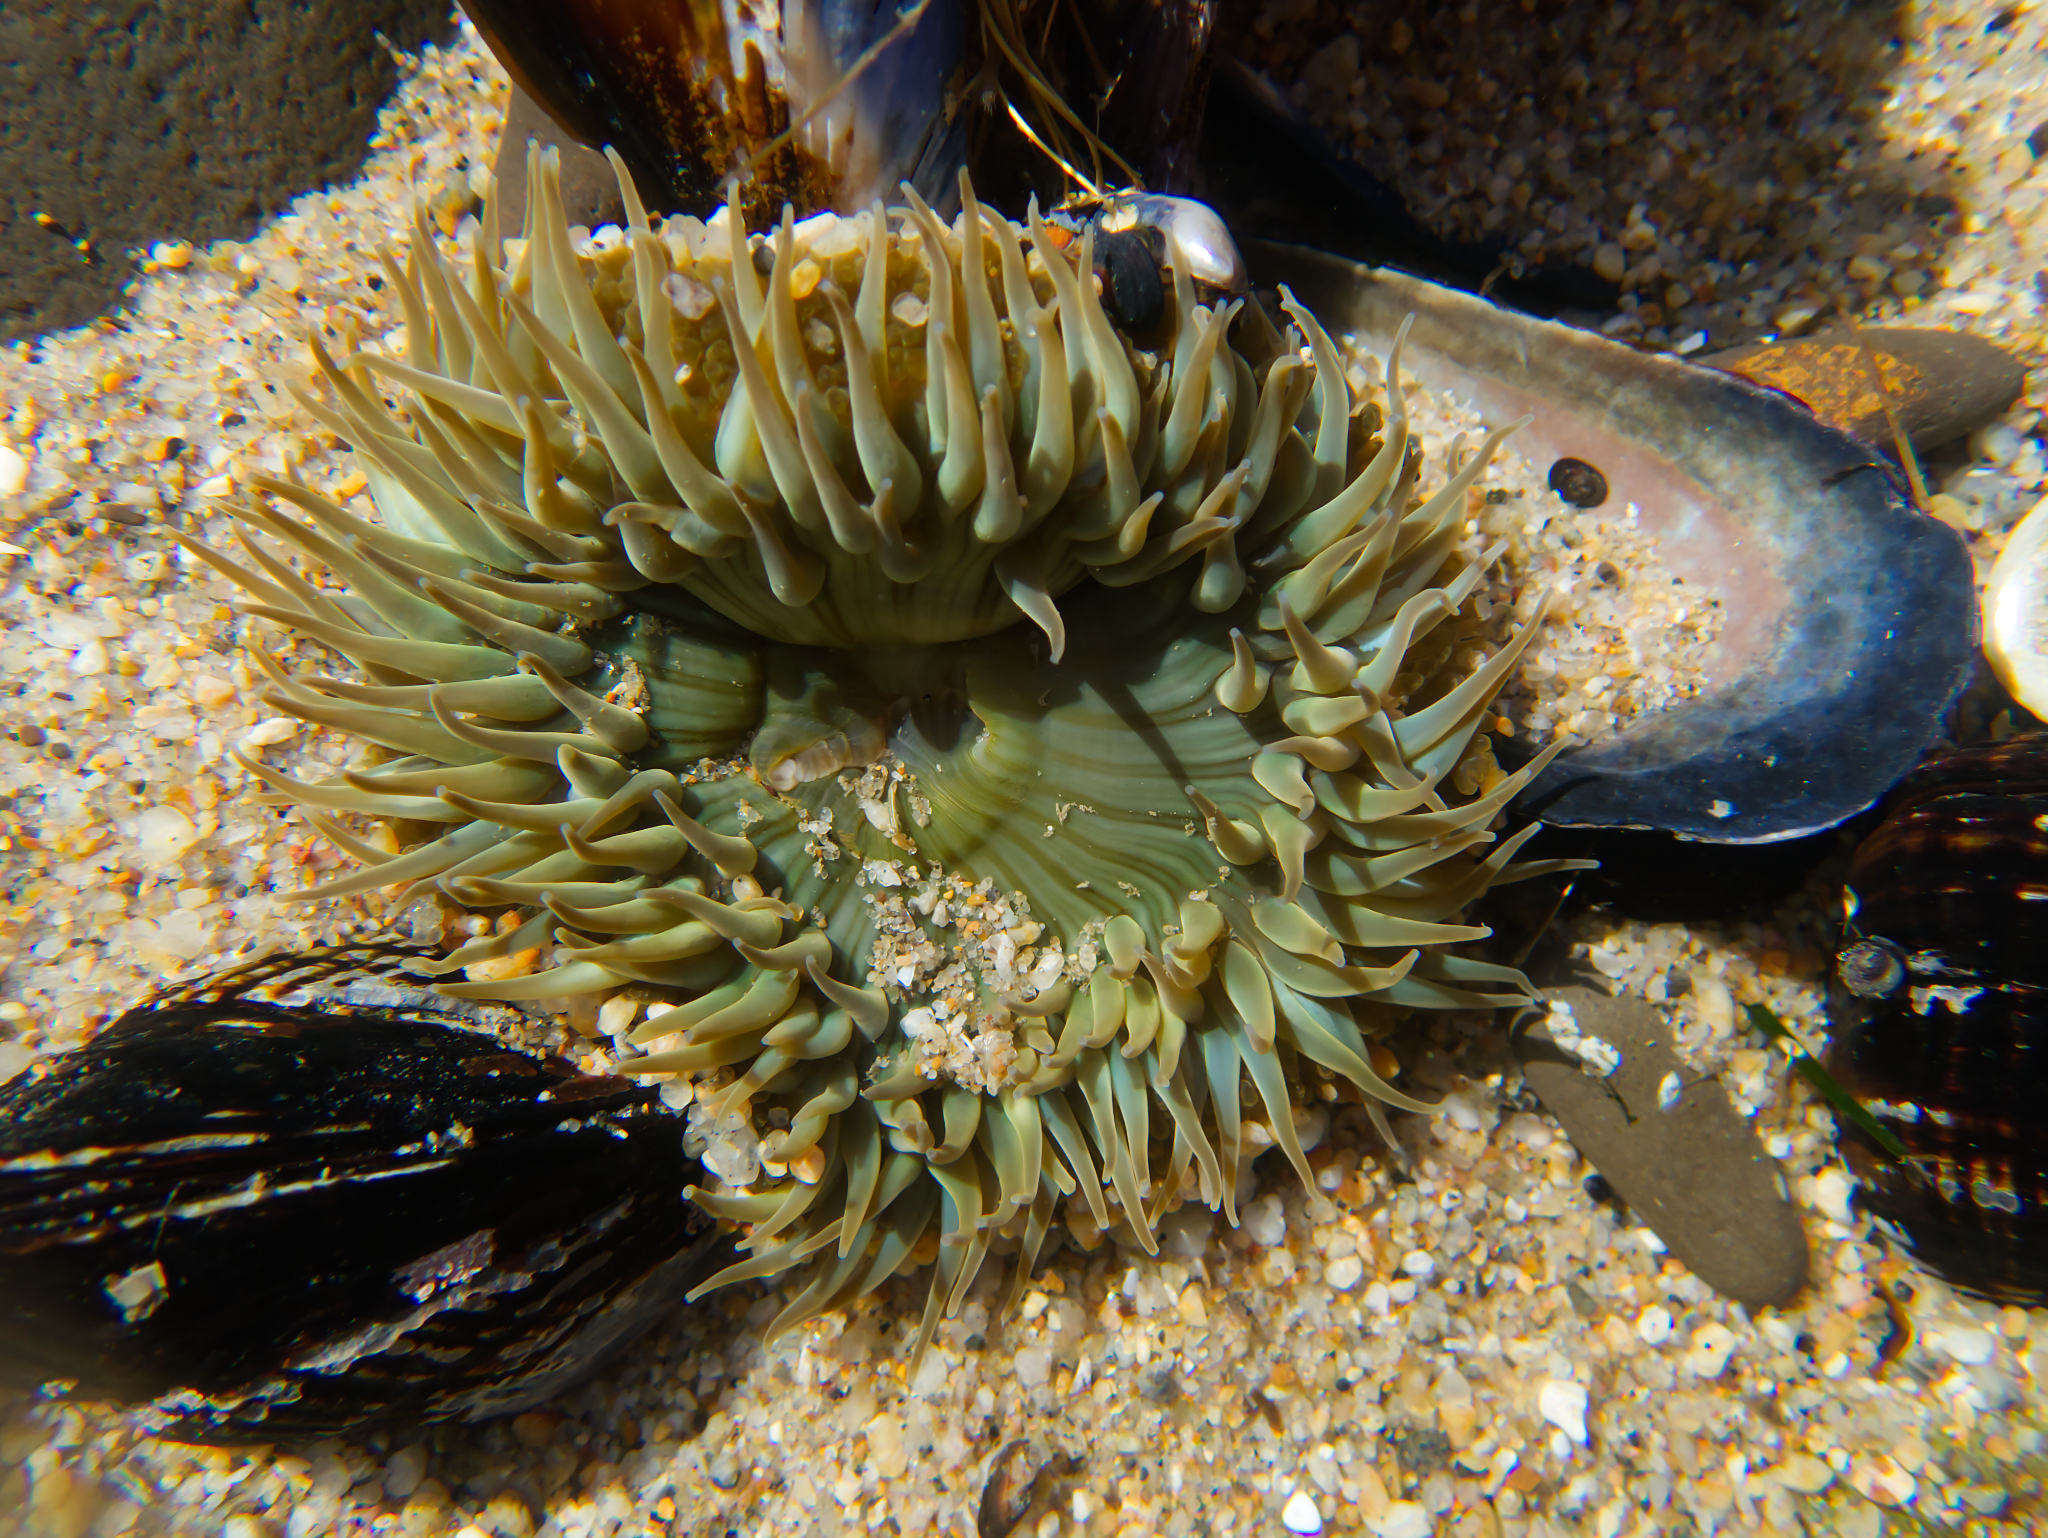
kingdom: Animalia
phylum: Cnidaria
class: Anthozoa
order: Actiniaria
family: Actiniidae
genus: Anthopleura
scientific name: Anthopleura sola
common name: Sun anemone
